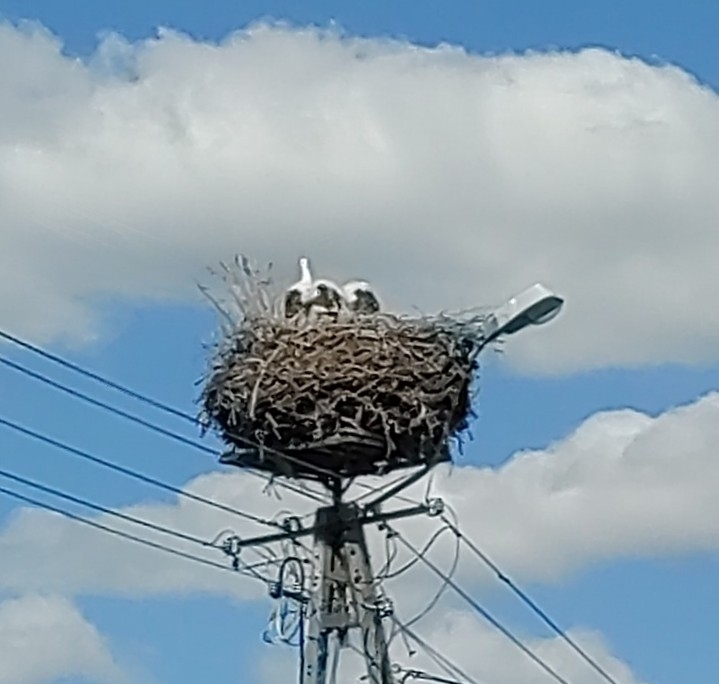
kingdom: Animalia
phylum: Chordata
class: Aves
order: Ciconiiformes
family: Ciconiidae
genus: Ciconia
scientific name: Ciconia ciconia
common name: White stork
